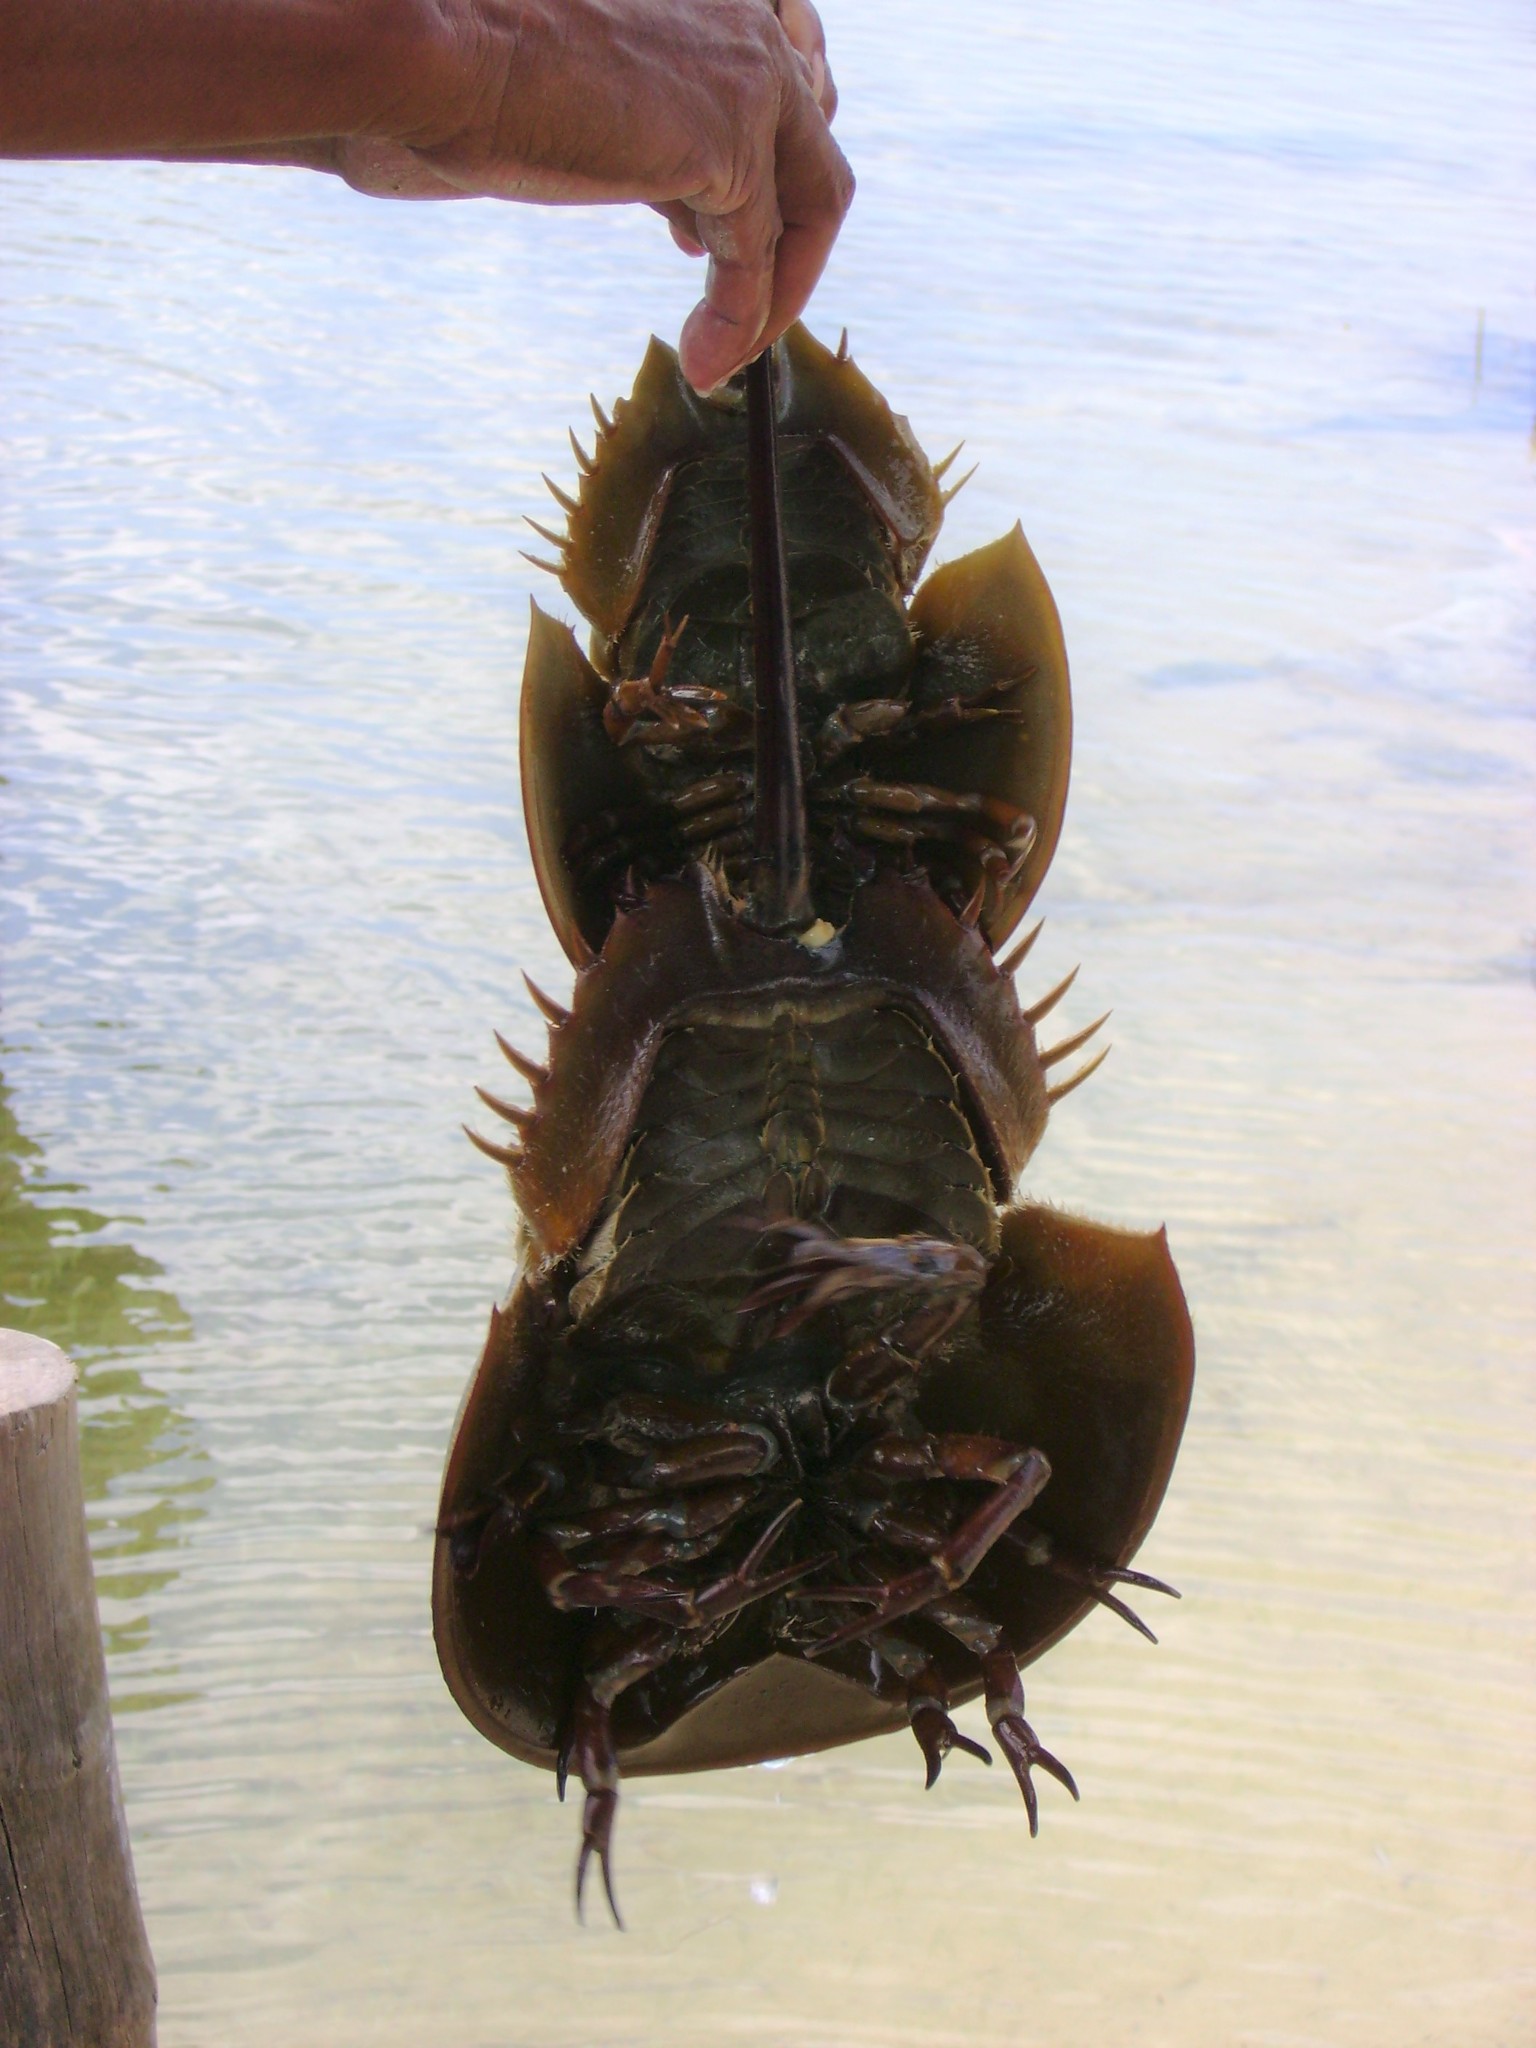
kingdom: Animalia
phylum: Arthropoda
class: Merostomata
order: Xiphosurida
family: Limulidae
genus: Limulus
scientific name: Limulus polyphemus
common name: Horseshoe crab
